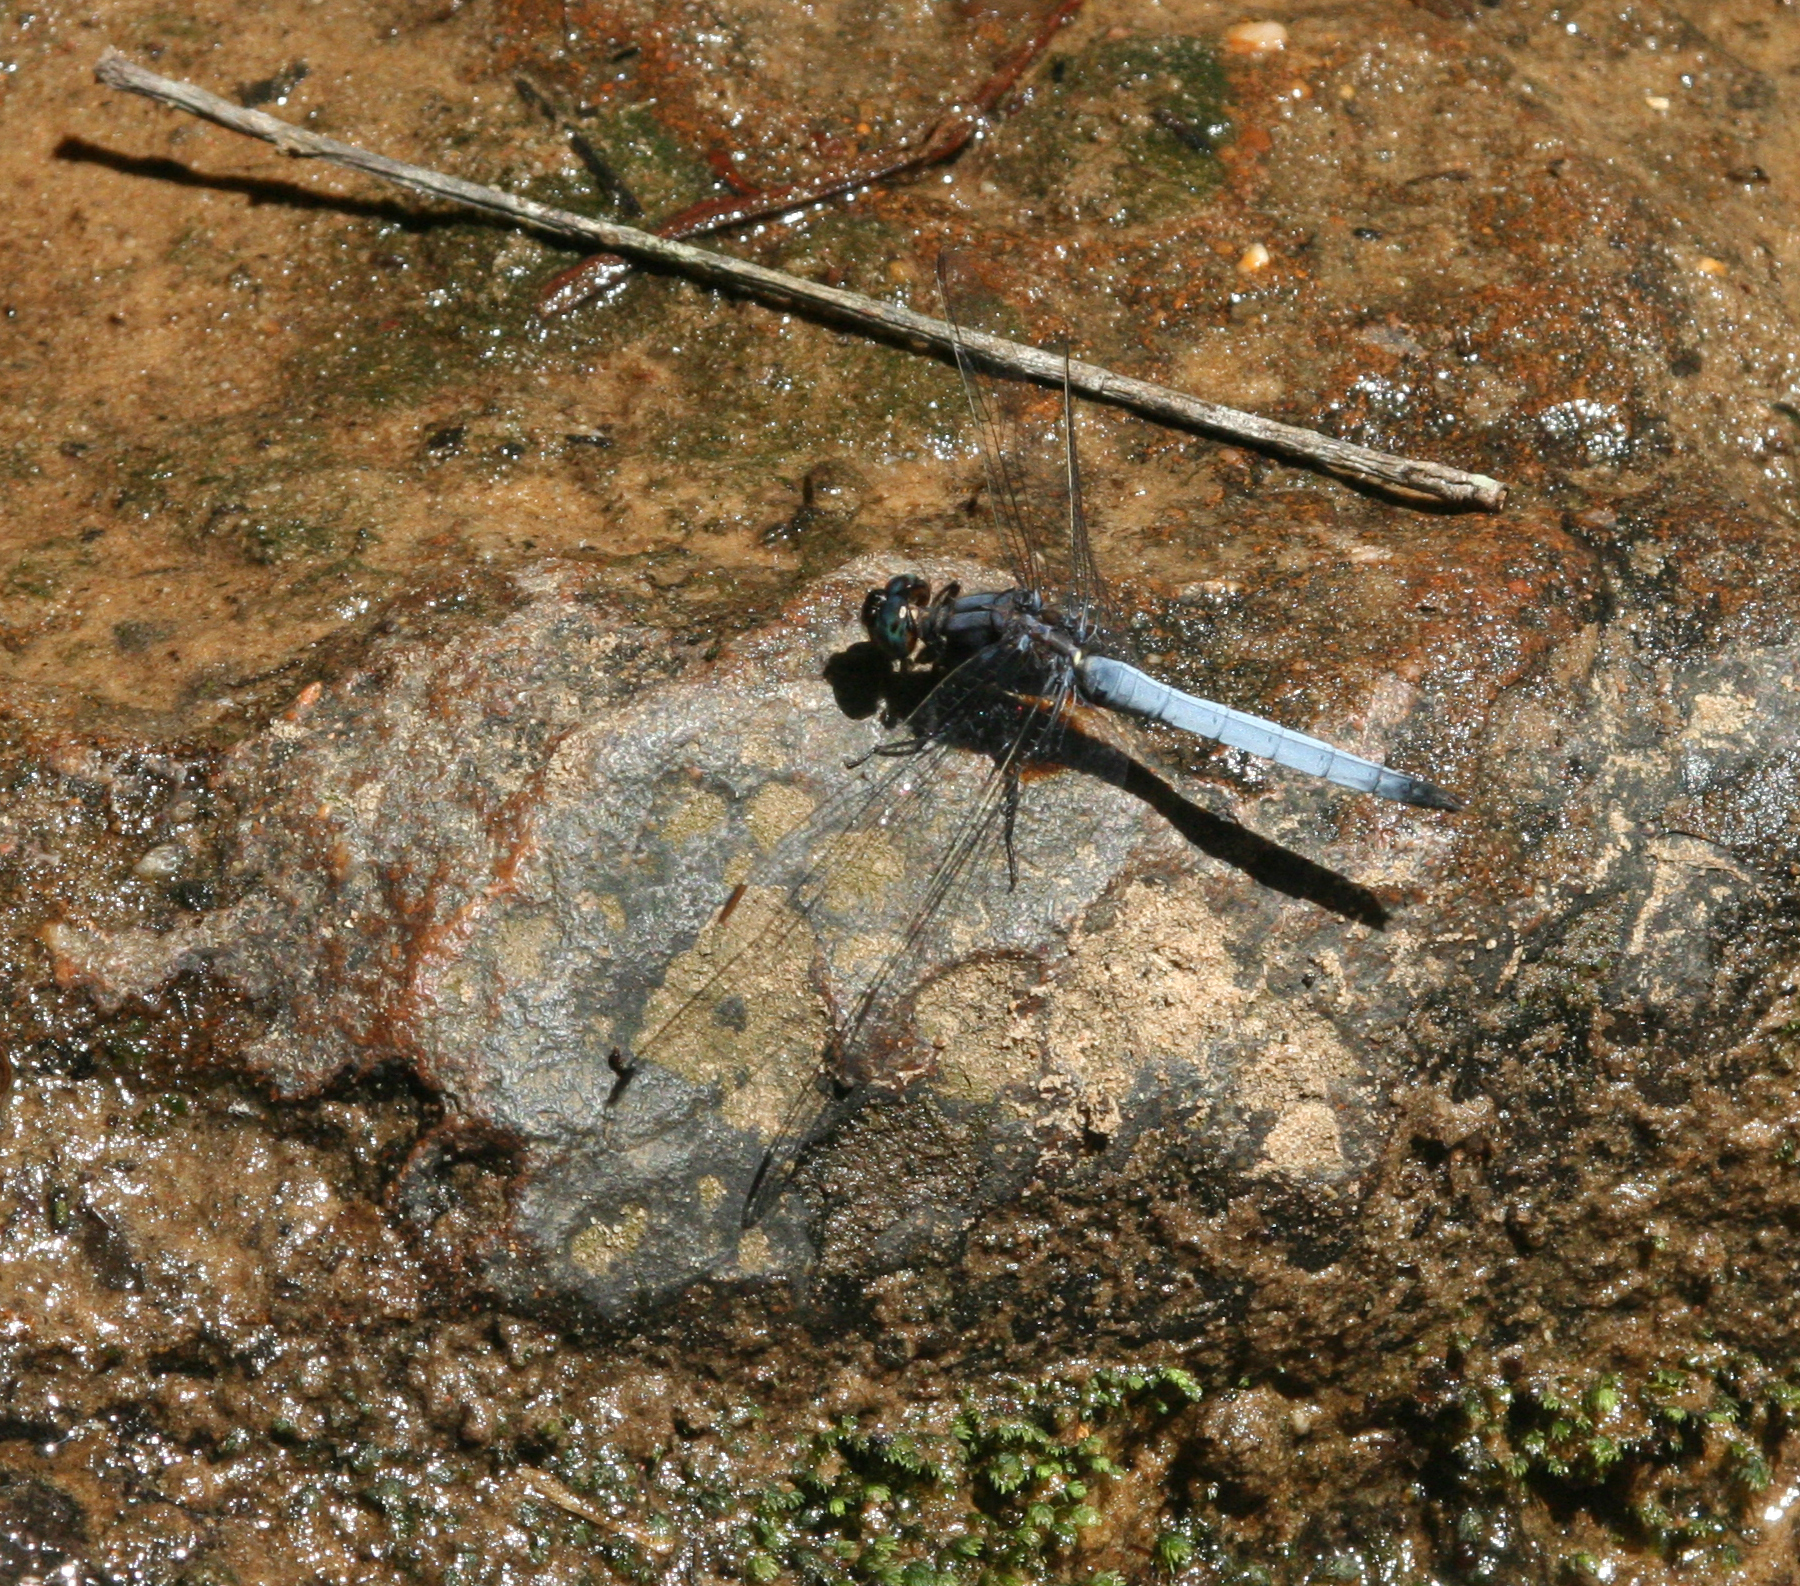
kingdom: Animalia
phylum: Arthropoda
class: Insecta
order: Odonata
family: Libellulidae
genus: Orthetrum
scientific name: Orthetrum glaucum
